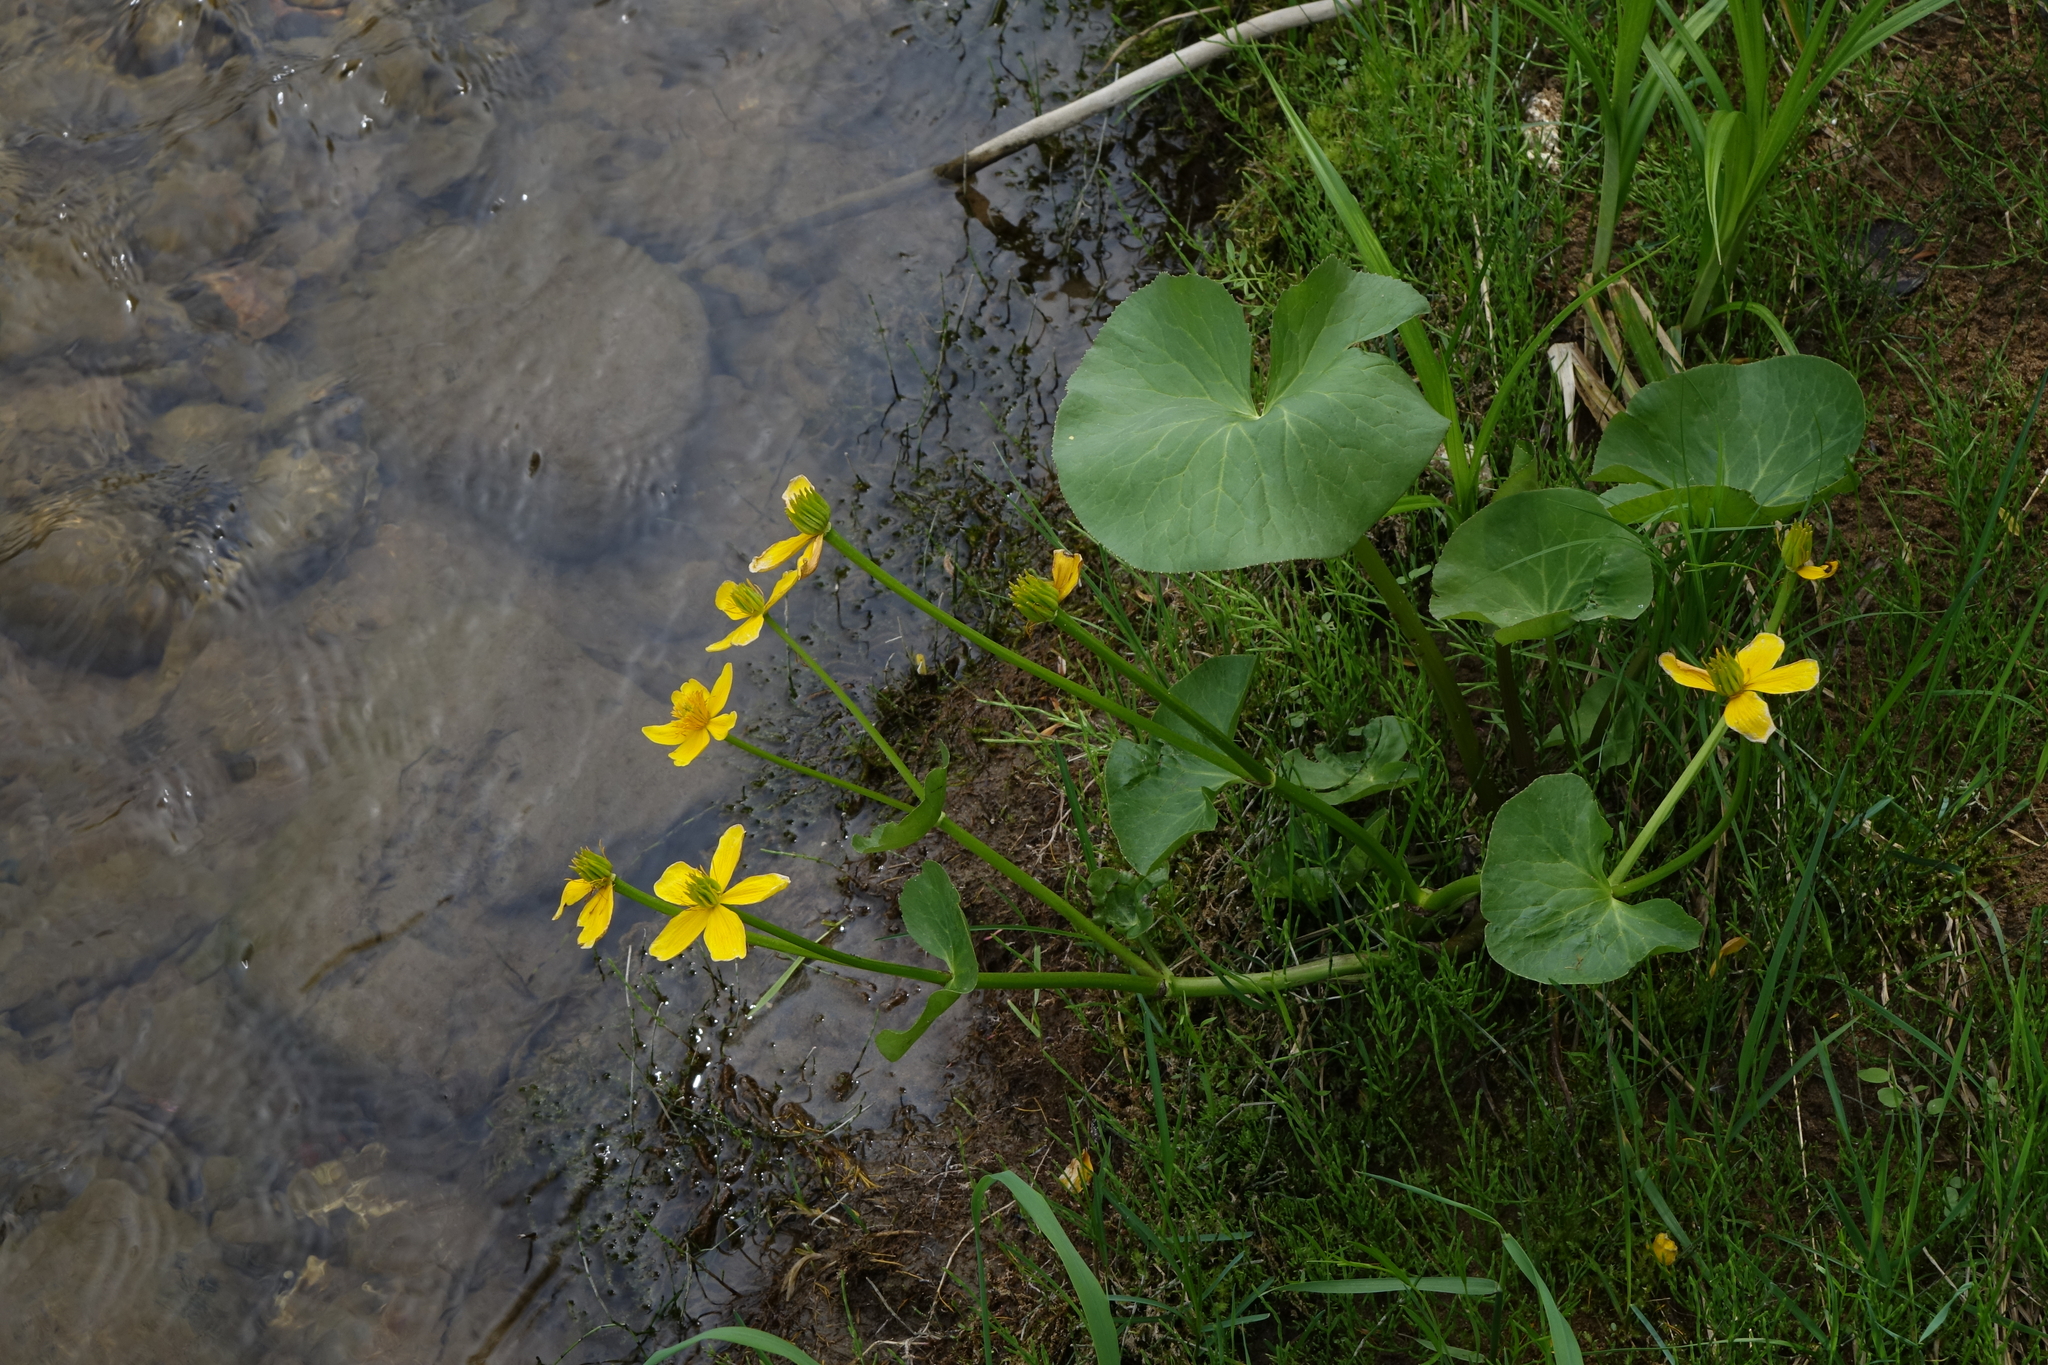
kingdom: Plantae
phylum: Tracheophyta
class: Magnoliopsida
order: Ranunculales
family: Ranunculaceae
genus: Caltha
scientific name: Caltha palustris
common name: Marsh marigold
